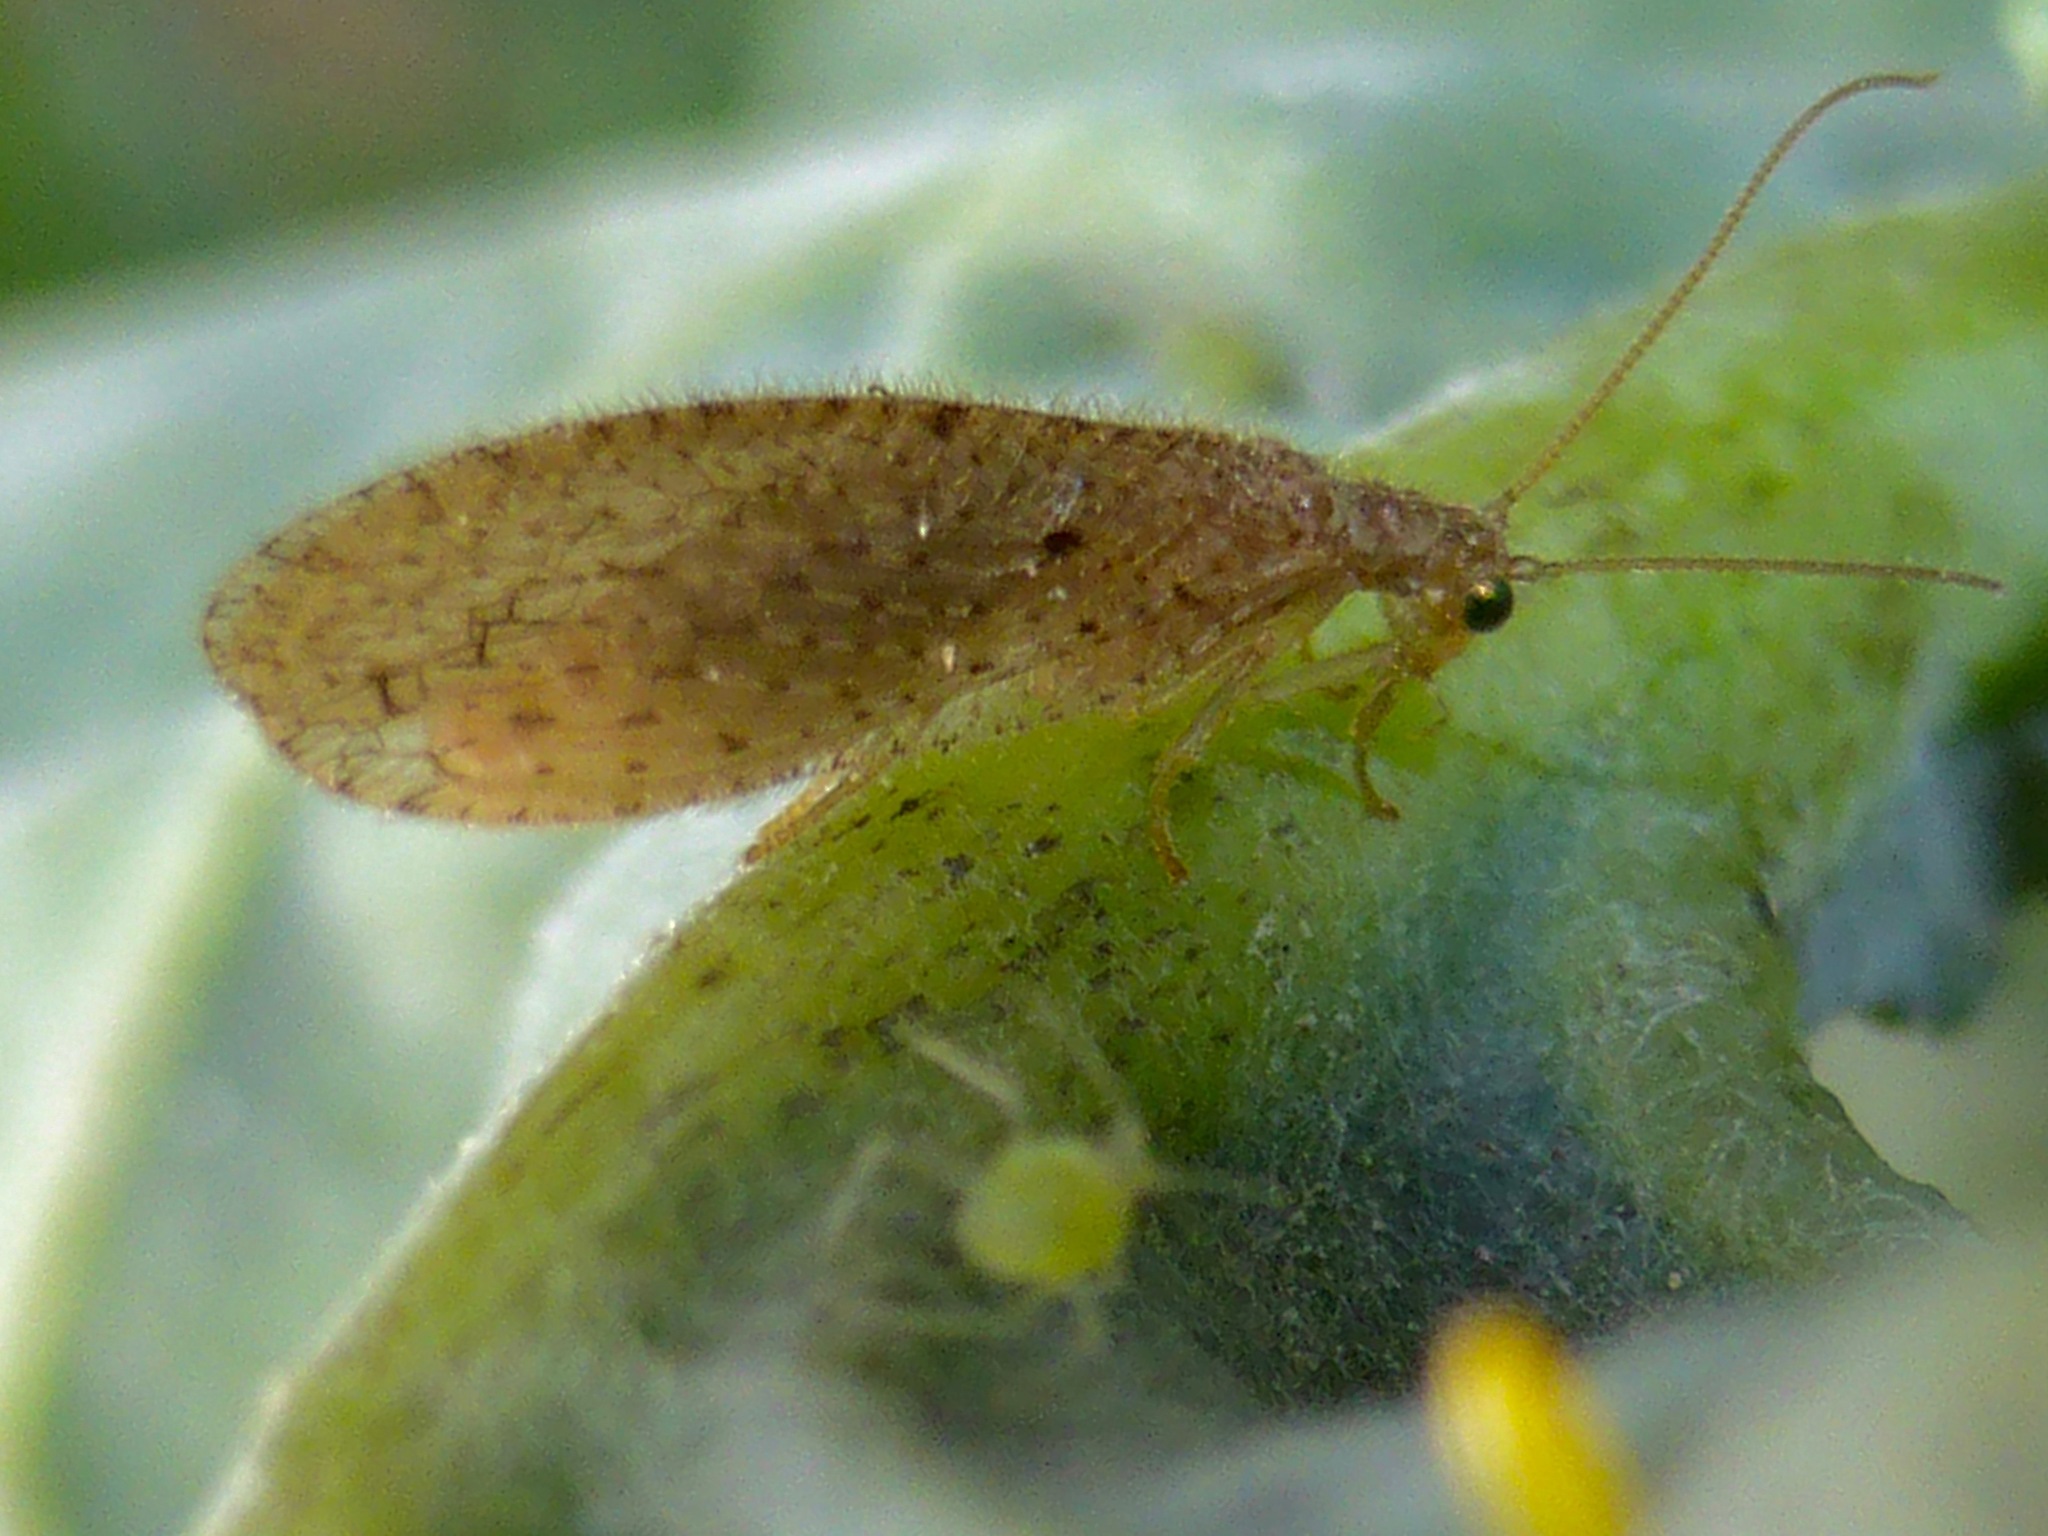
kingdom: Animalia
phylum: Arthropoda
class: Insecta
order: Neuroptera
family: Hemerobiidae
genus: Micromus
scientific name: Micromus tasmaniae
